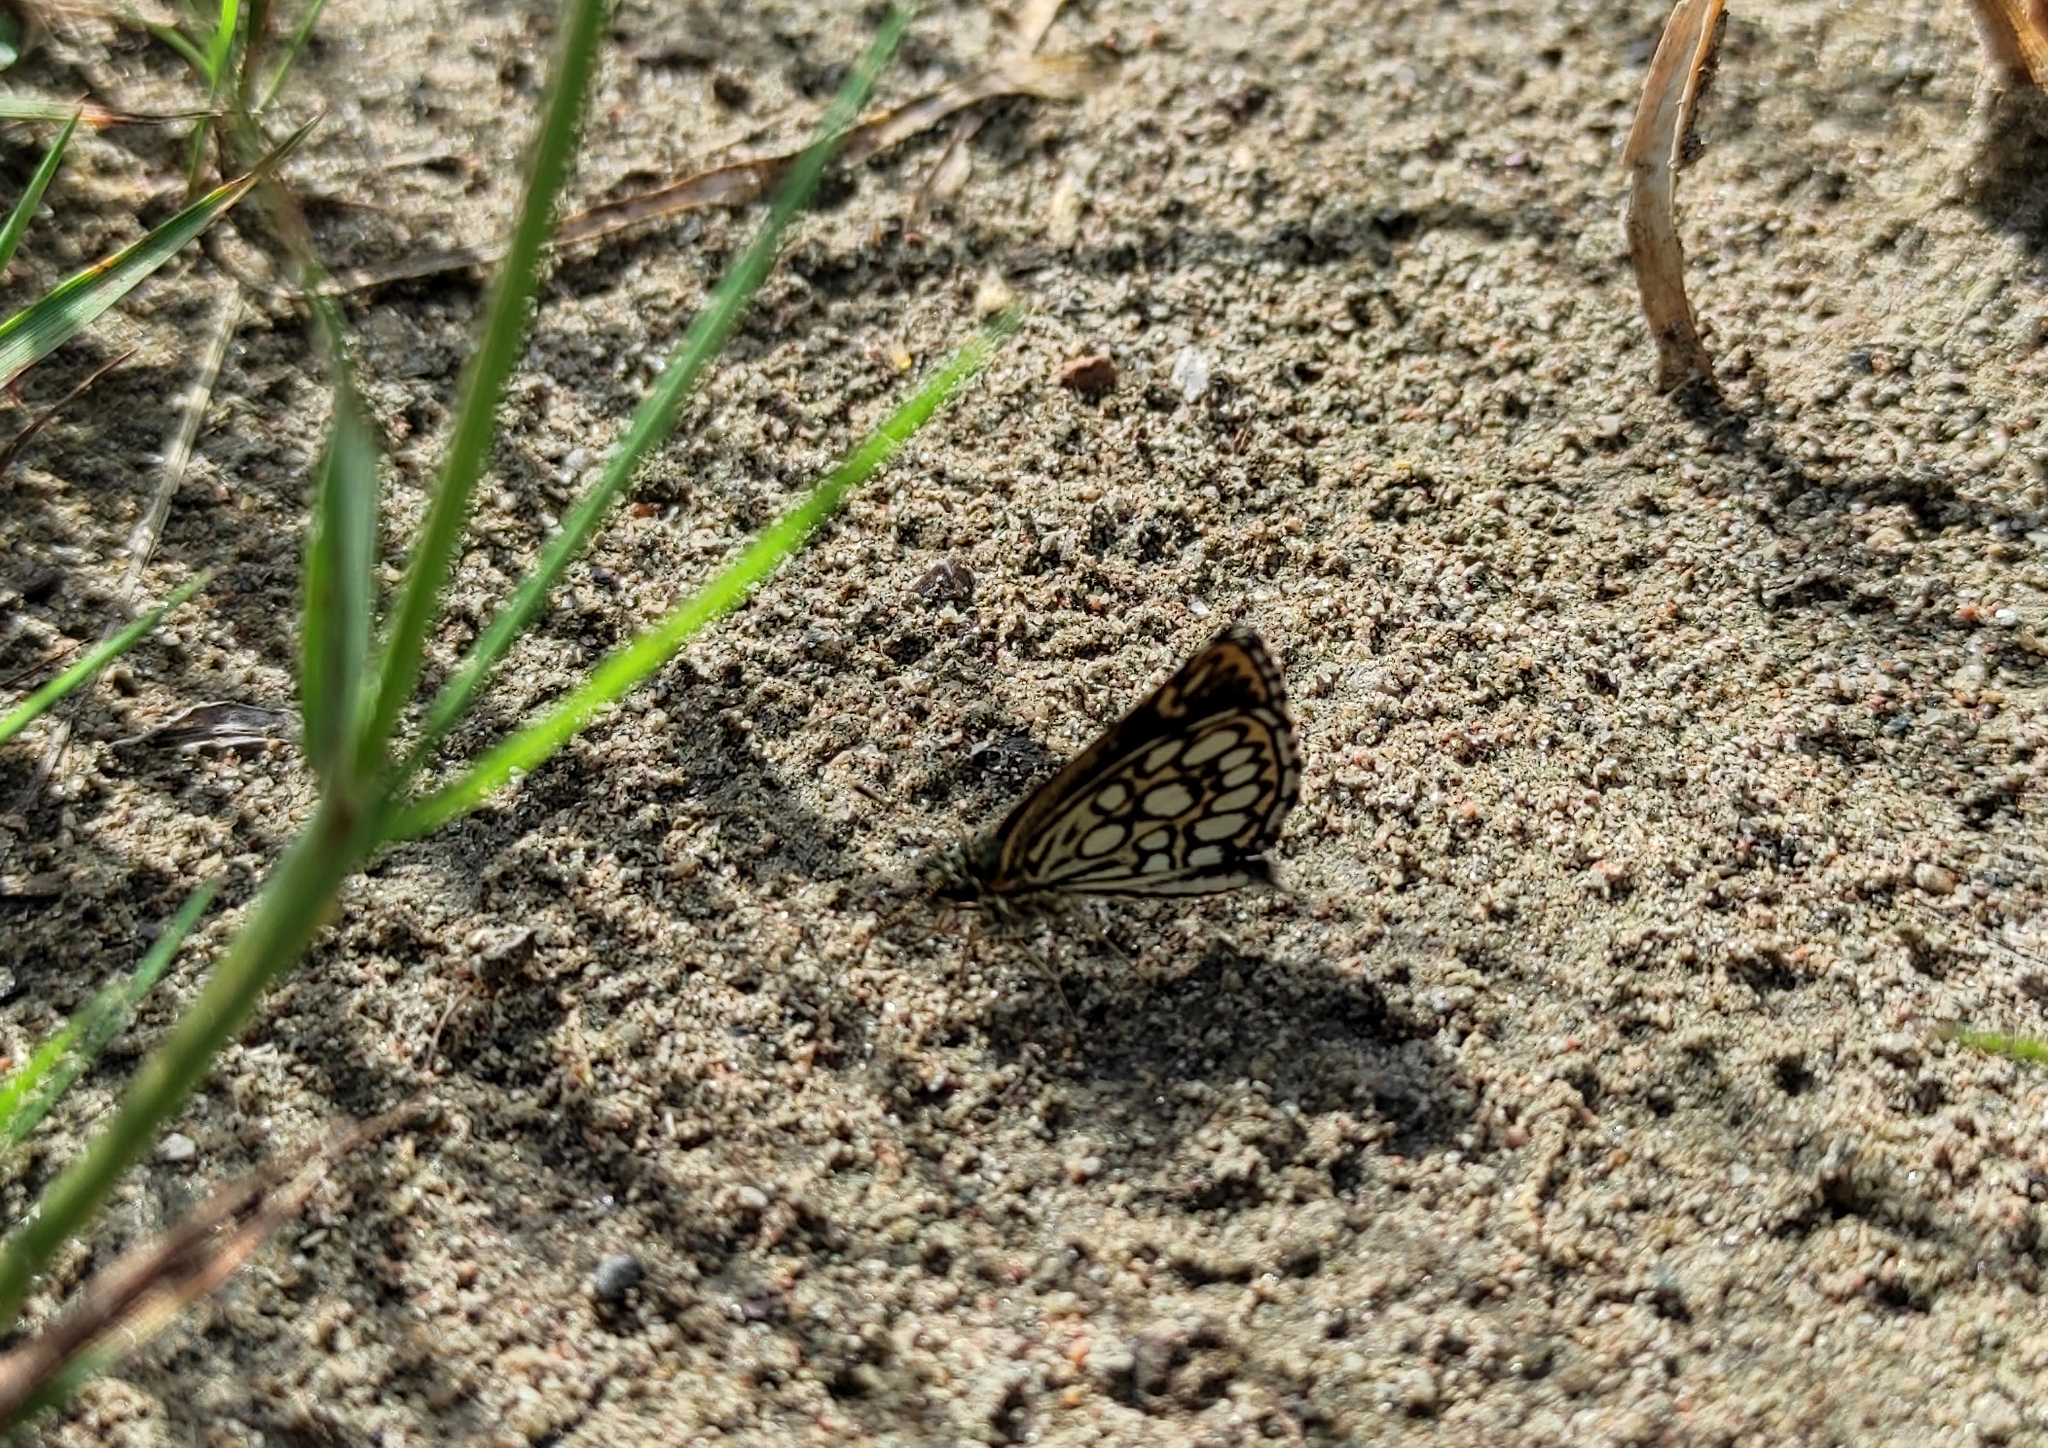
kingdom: Animalia
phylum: Arthropoda
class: Insecta
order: Lepidoptera
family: Hesperiidae
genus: Heteropterus
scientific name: Heteropterus morpheus
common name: Large chequered skipper
